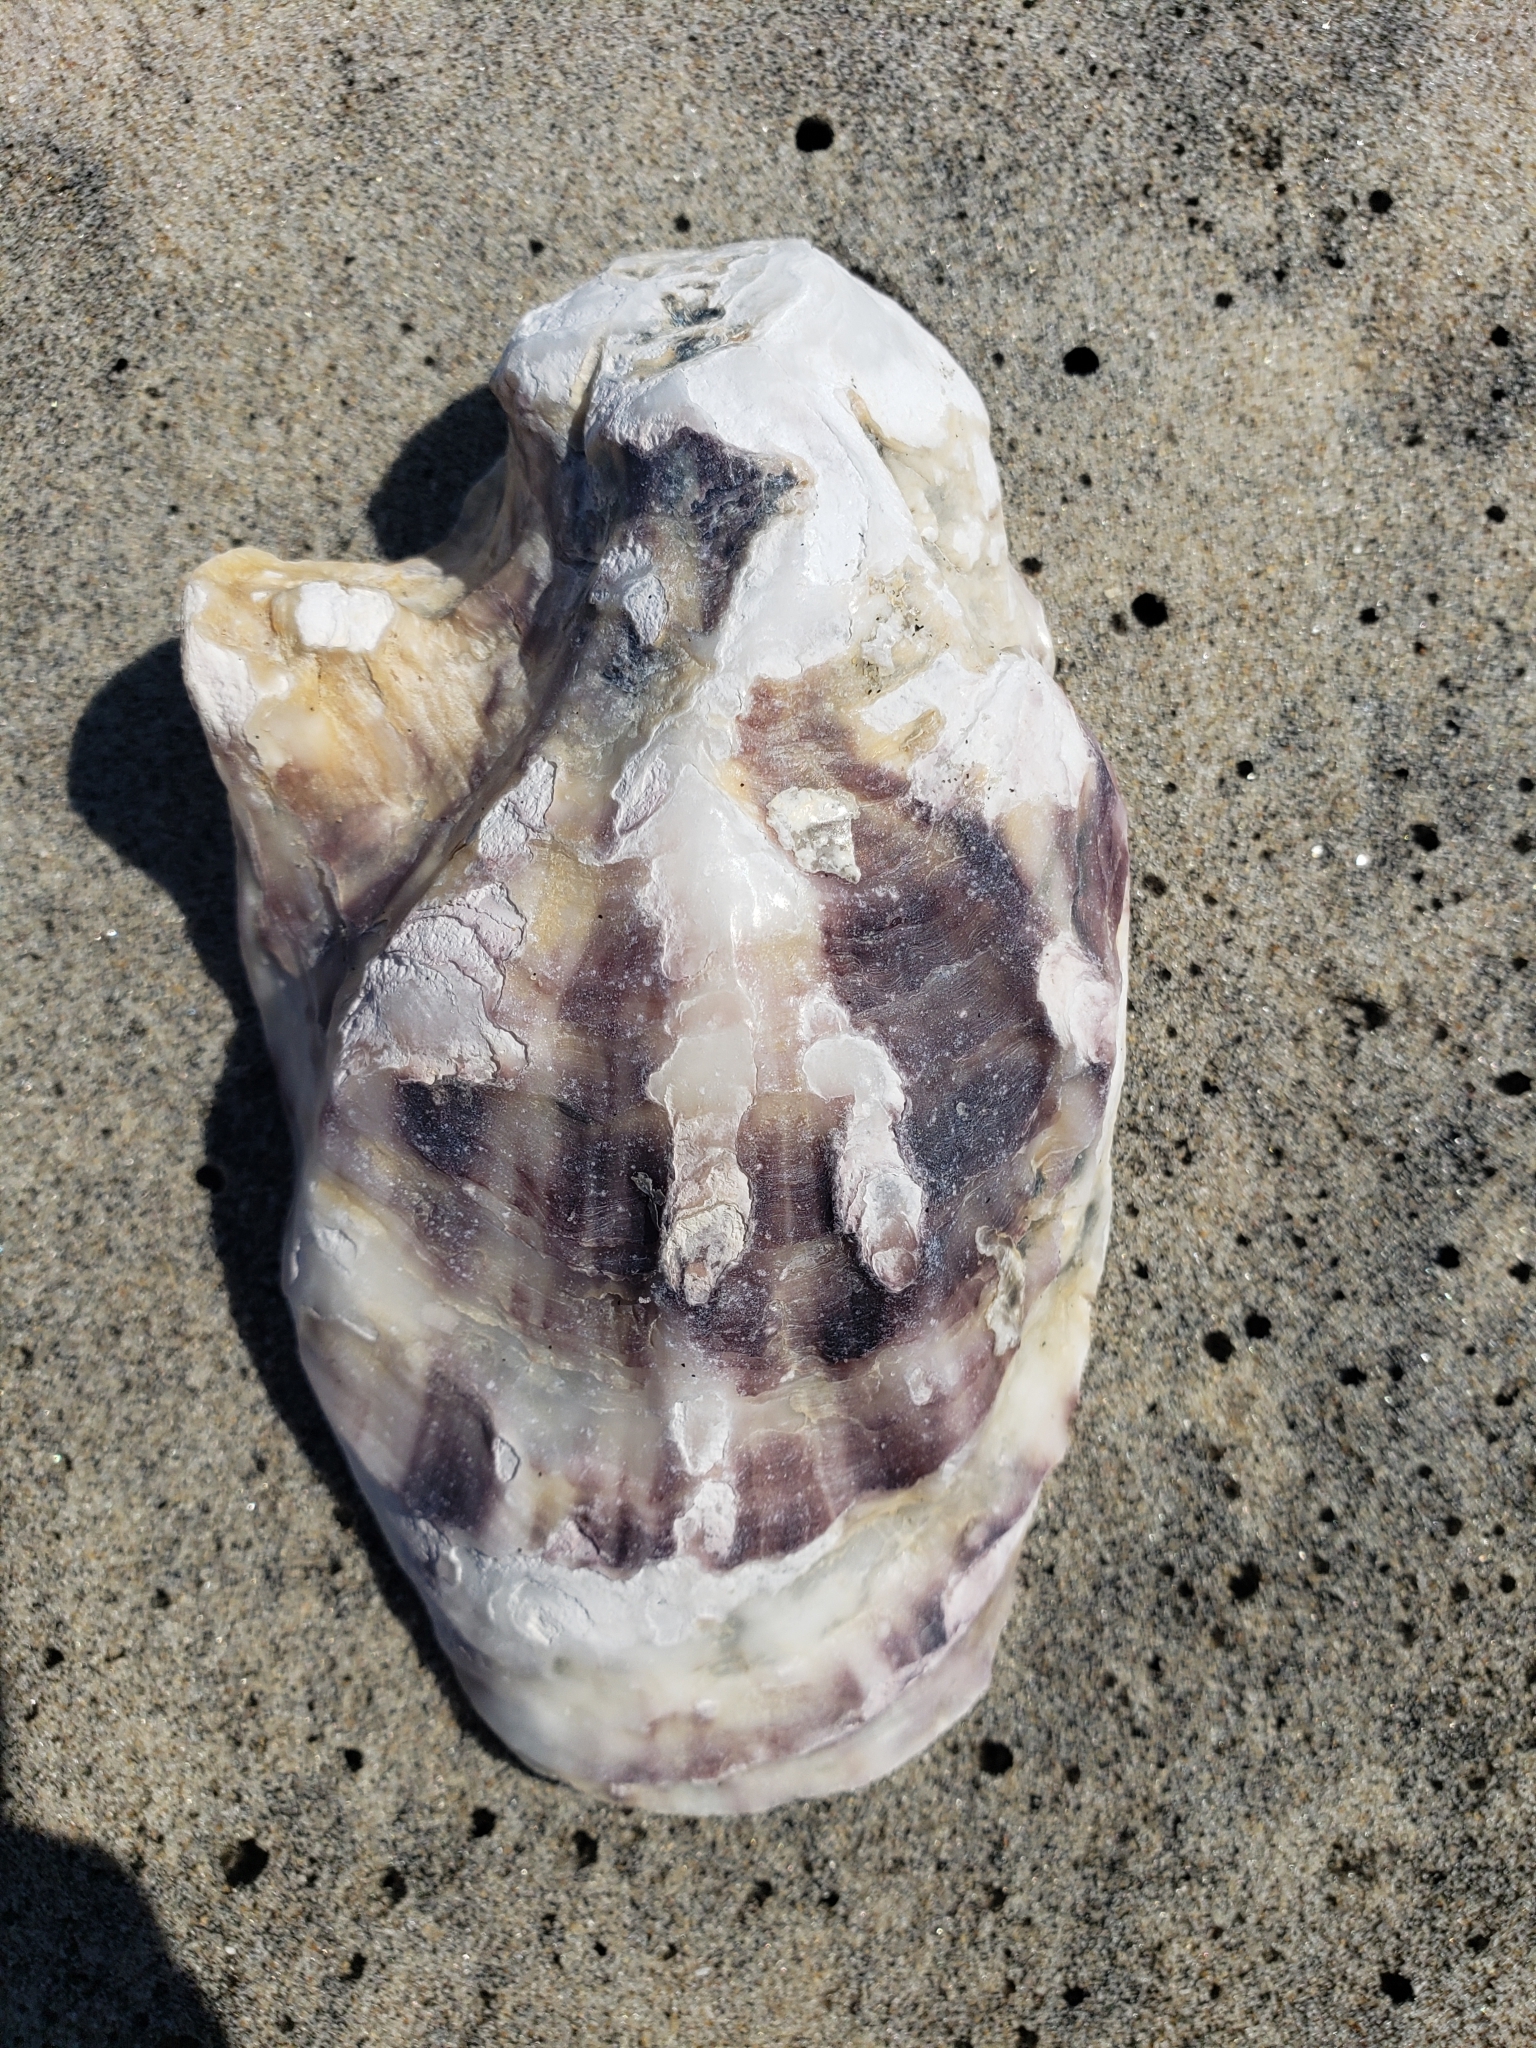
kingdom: Animalia
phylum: Mollusca
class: Bivalvia
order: Ostreida
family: Ostreidae
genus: Magallana
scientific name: Magallana gigas
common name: Pacific oyster
